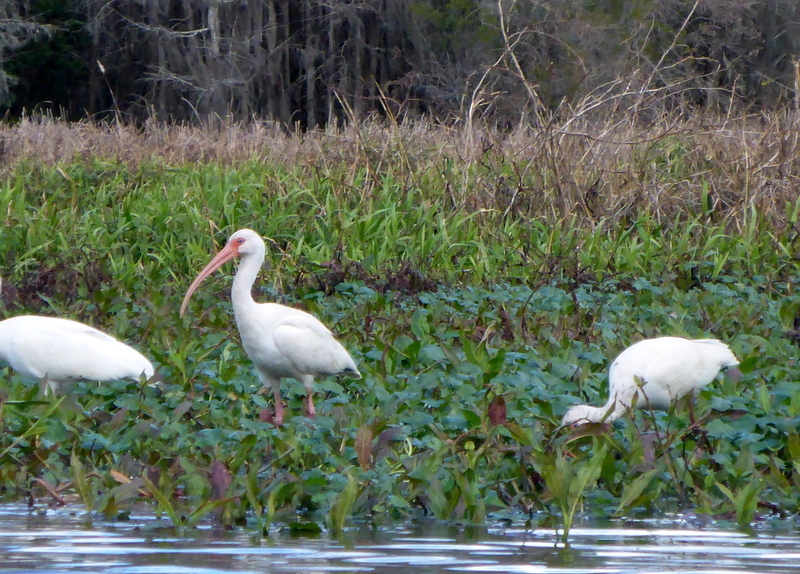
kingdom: Animalia
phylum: Chordata
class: Aves
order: Pelecaniformes
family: Threskiornithidae
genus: Eudocimus
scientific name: Eudocimus albus
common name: White ibis
